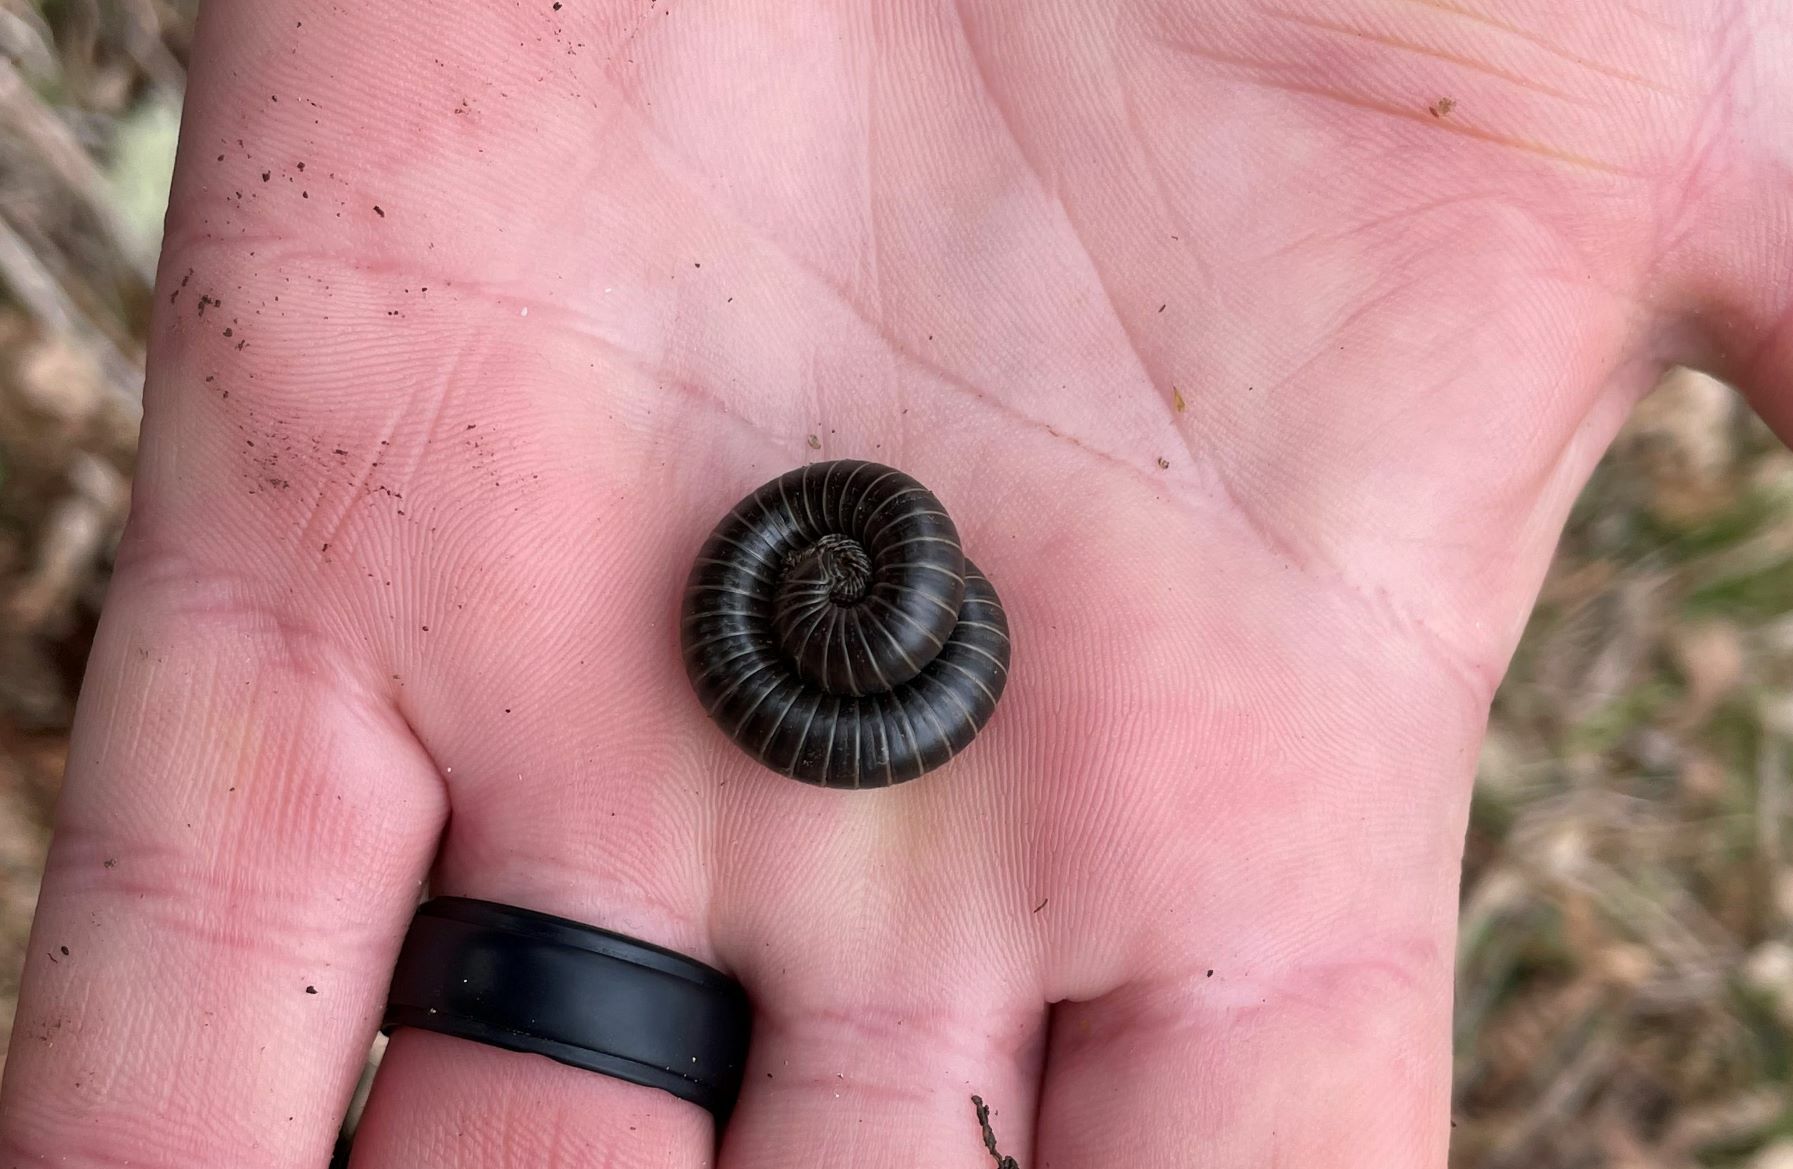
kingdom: Animalia
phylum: Arthropoda
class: Diplopoda
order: Spirobolida
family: Spirobolidae
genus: Tylobolus
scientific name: Tylobolus uncigerus
